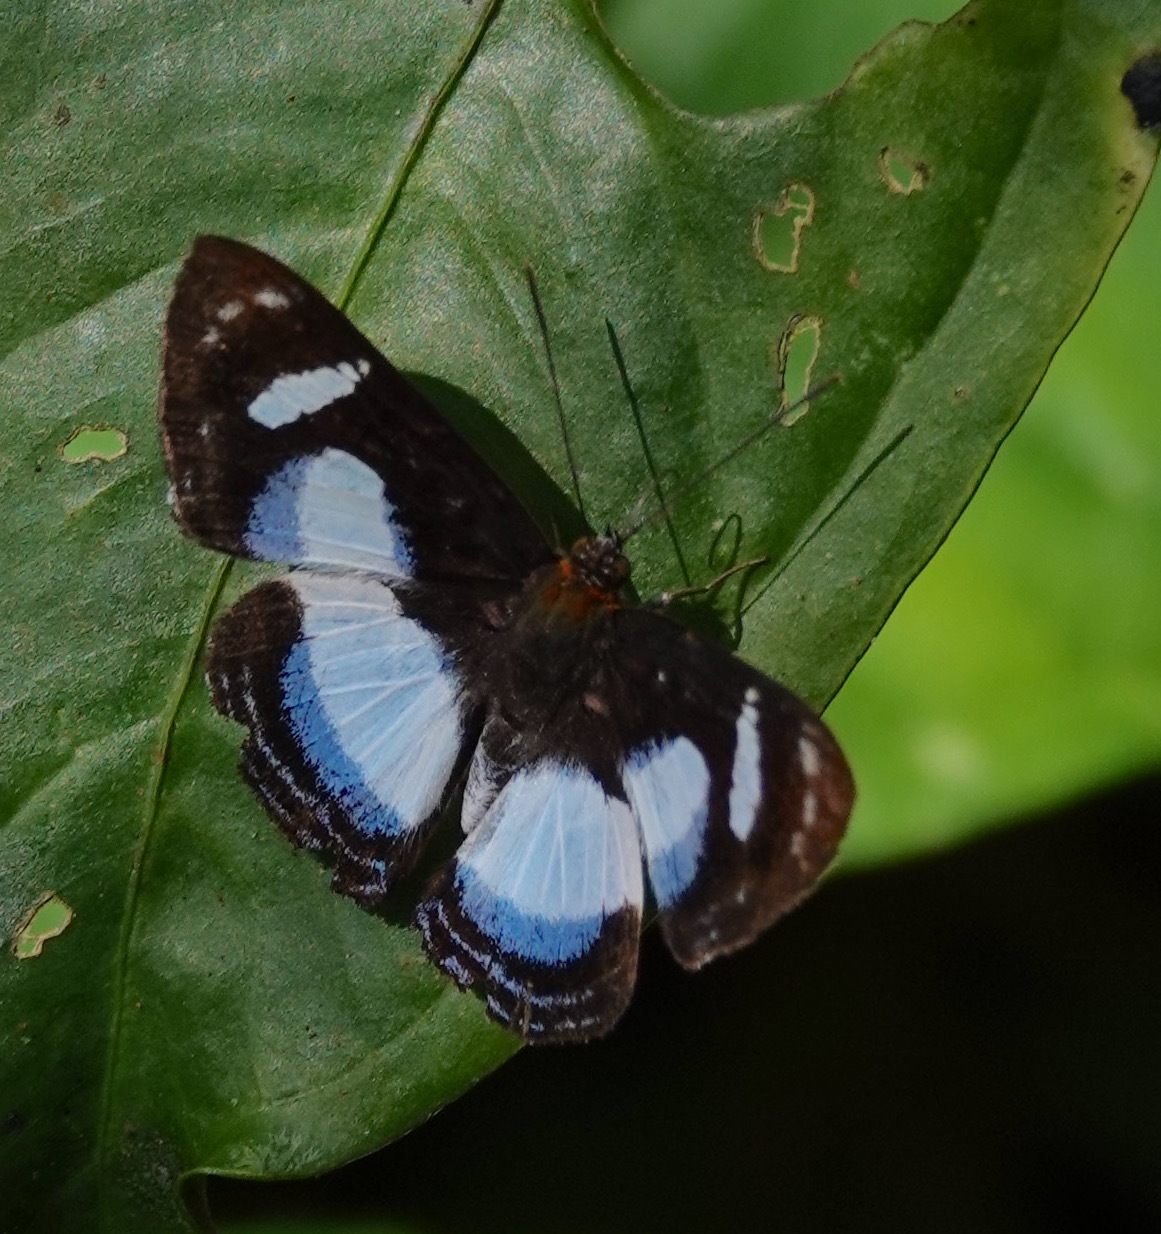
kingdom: Animalia
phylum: Arthropoda
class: Insecta
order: Lepidoptera
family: Riodinidae
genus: Thisbe
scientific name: Thisbe irenea
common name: Irenia metalmark
